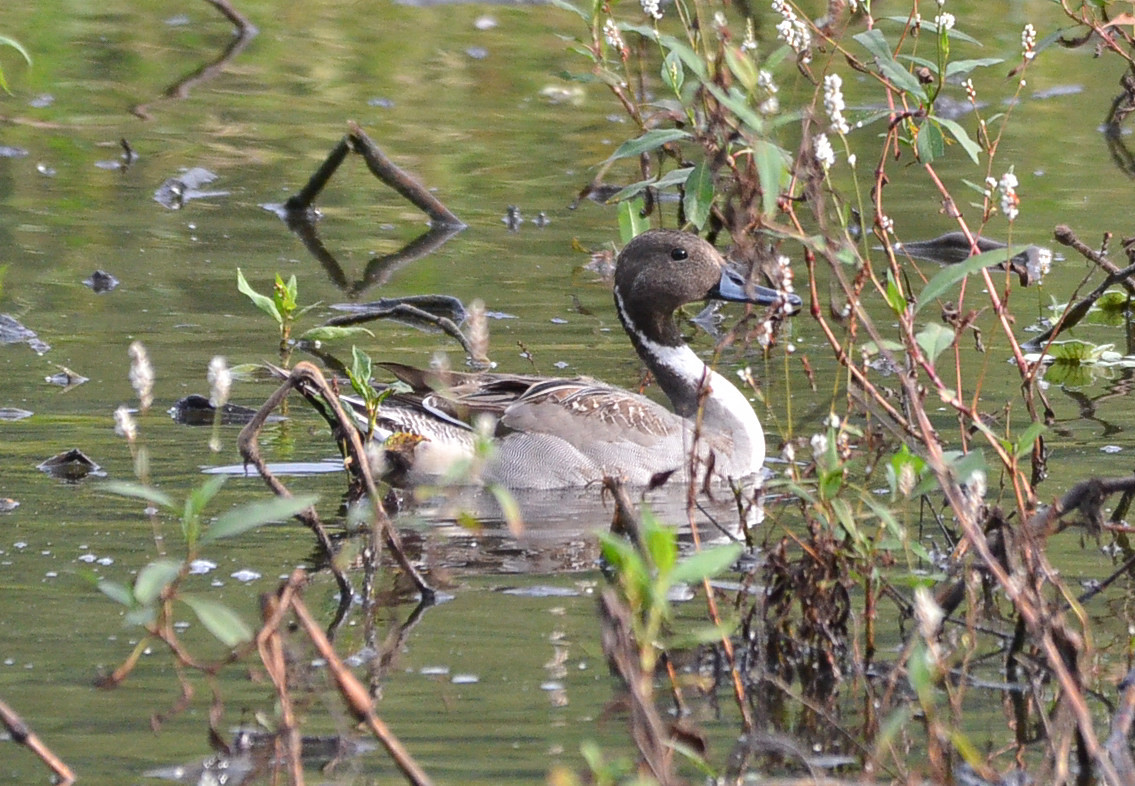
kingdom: Animalia
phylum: Chordata
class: Aves
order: Anseriformes
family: Anatidae
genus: Anas
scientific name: Anas acuta
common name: Northern pintail
